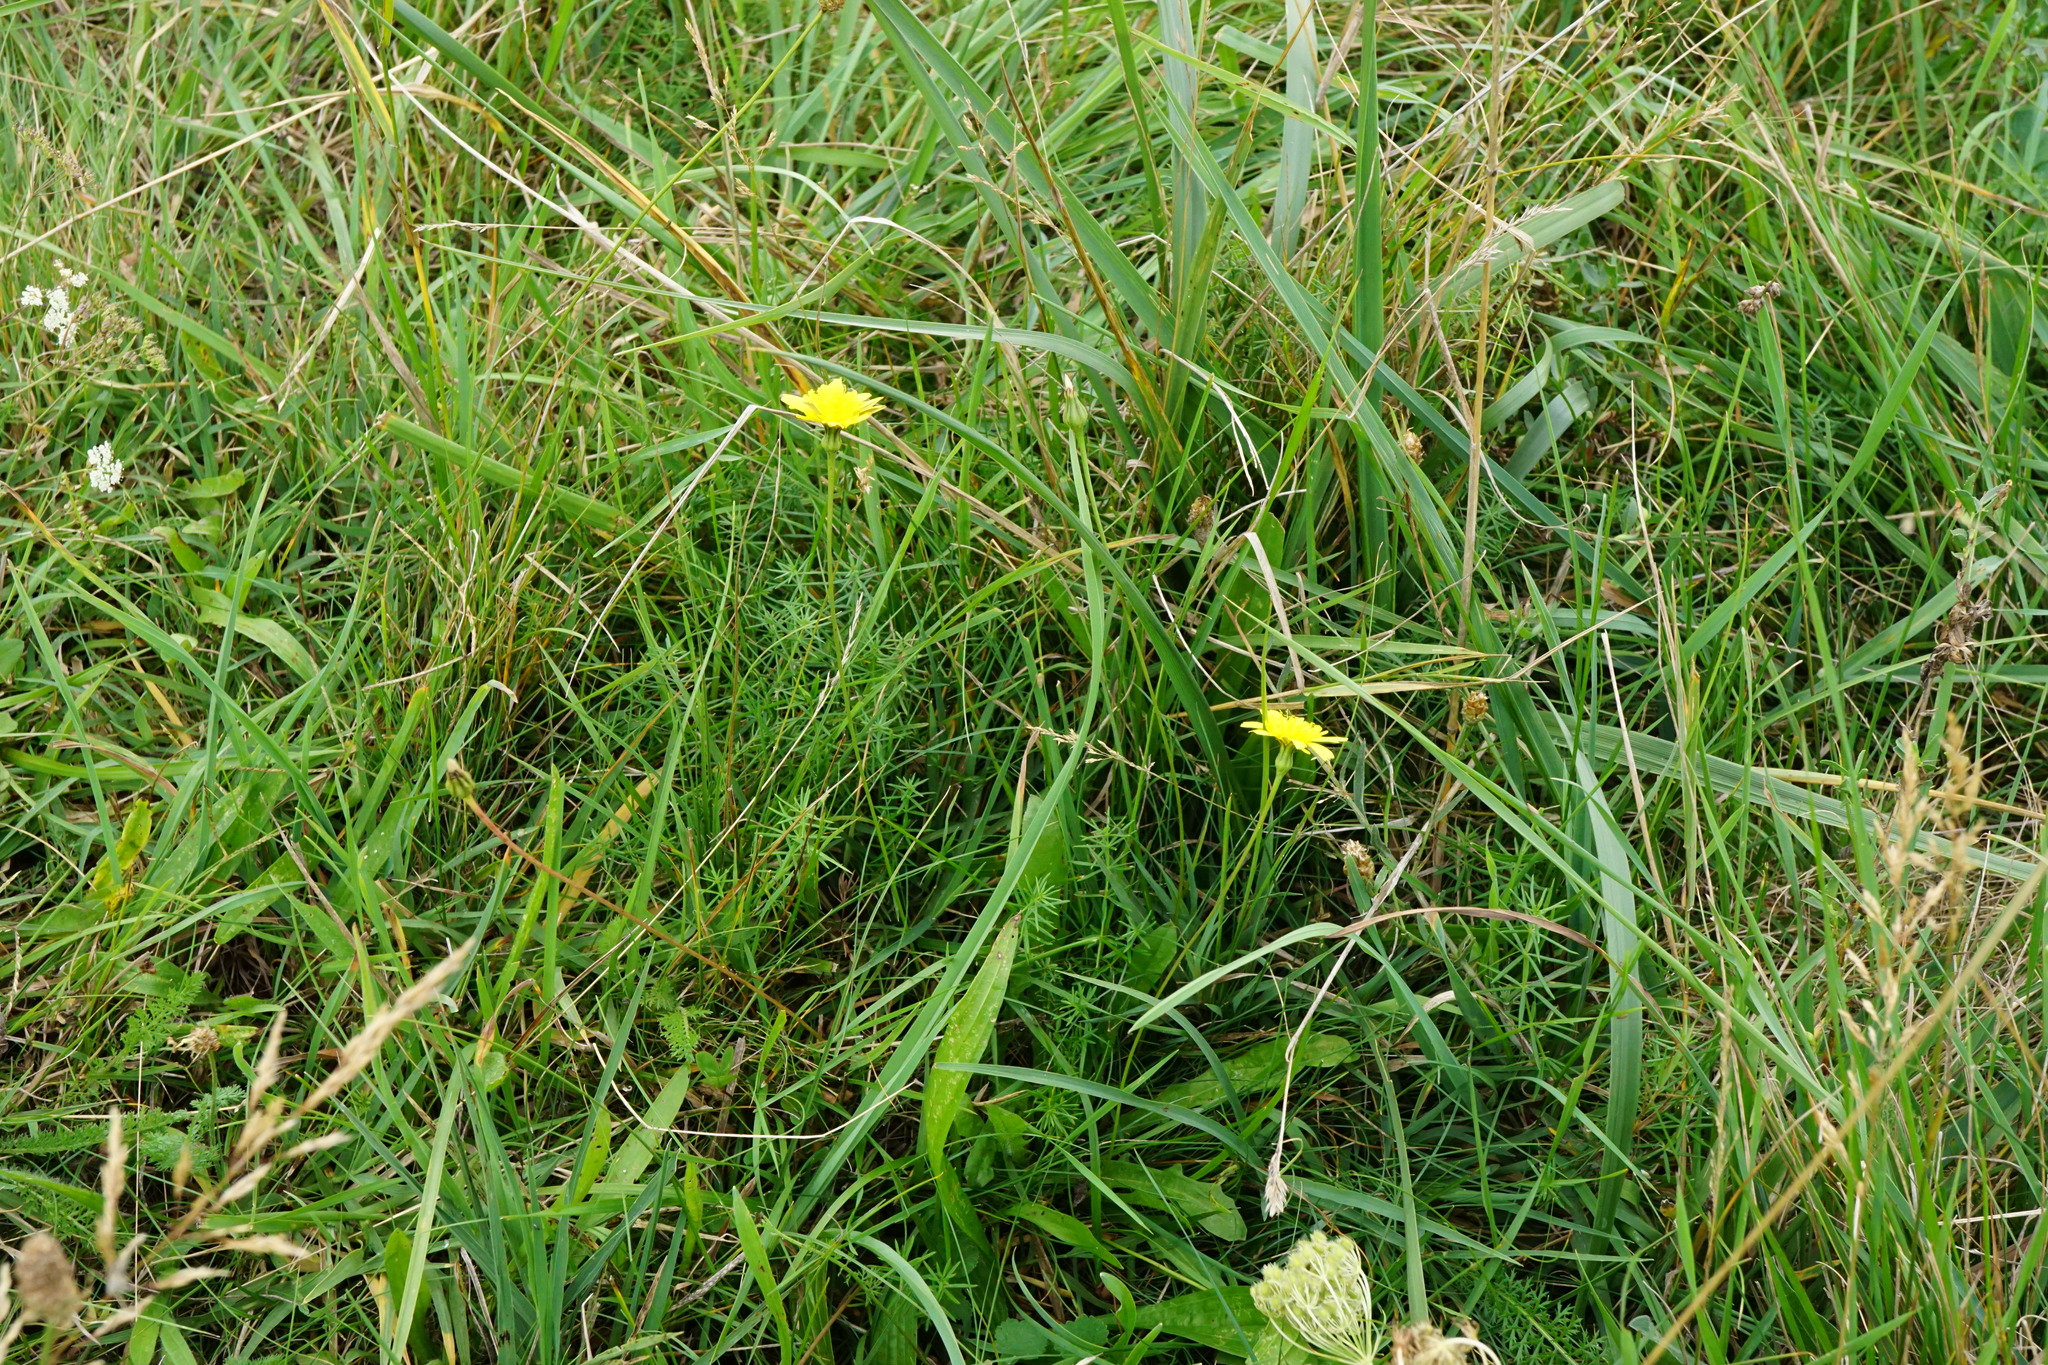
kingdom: Plantae
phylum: Tracheophyta
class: Magnoliopsida
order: Asterales
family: Asteraceae
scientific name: Asteraceae
